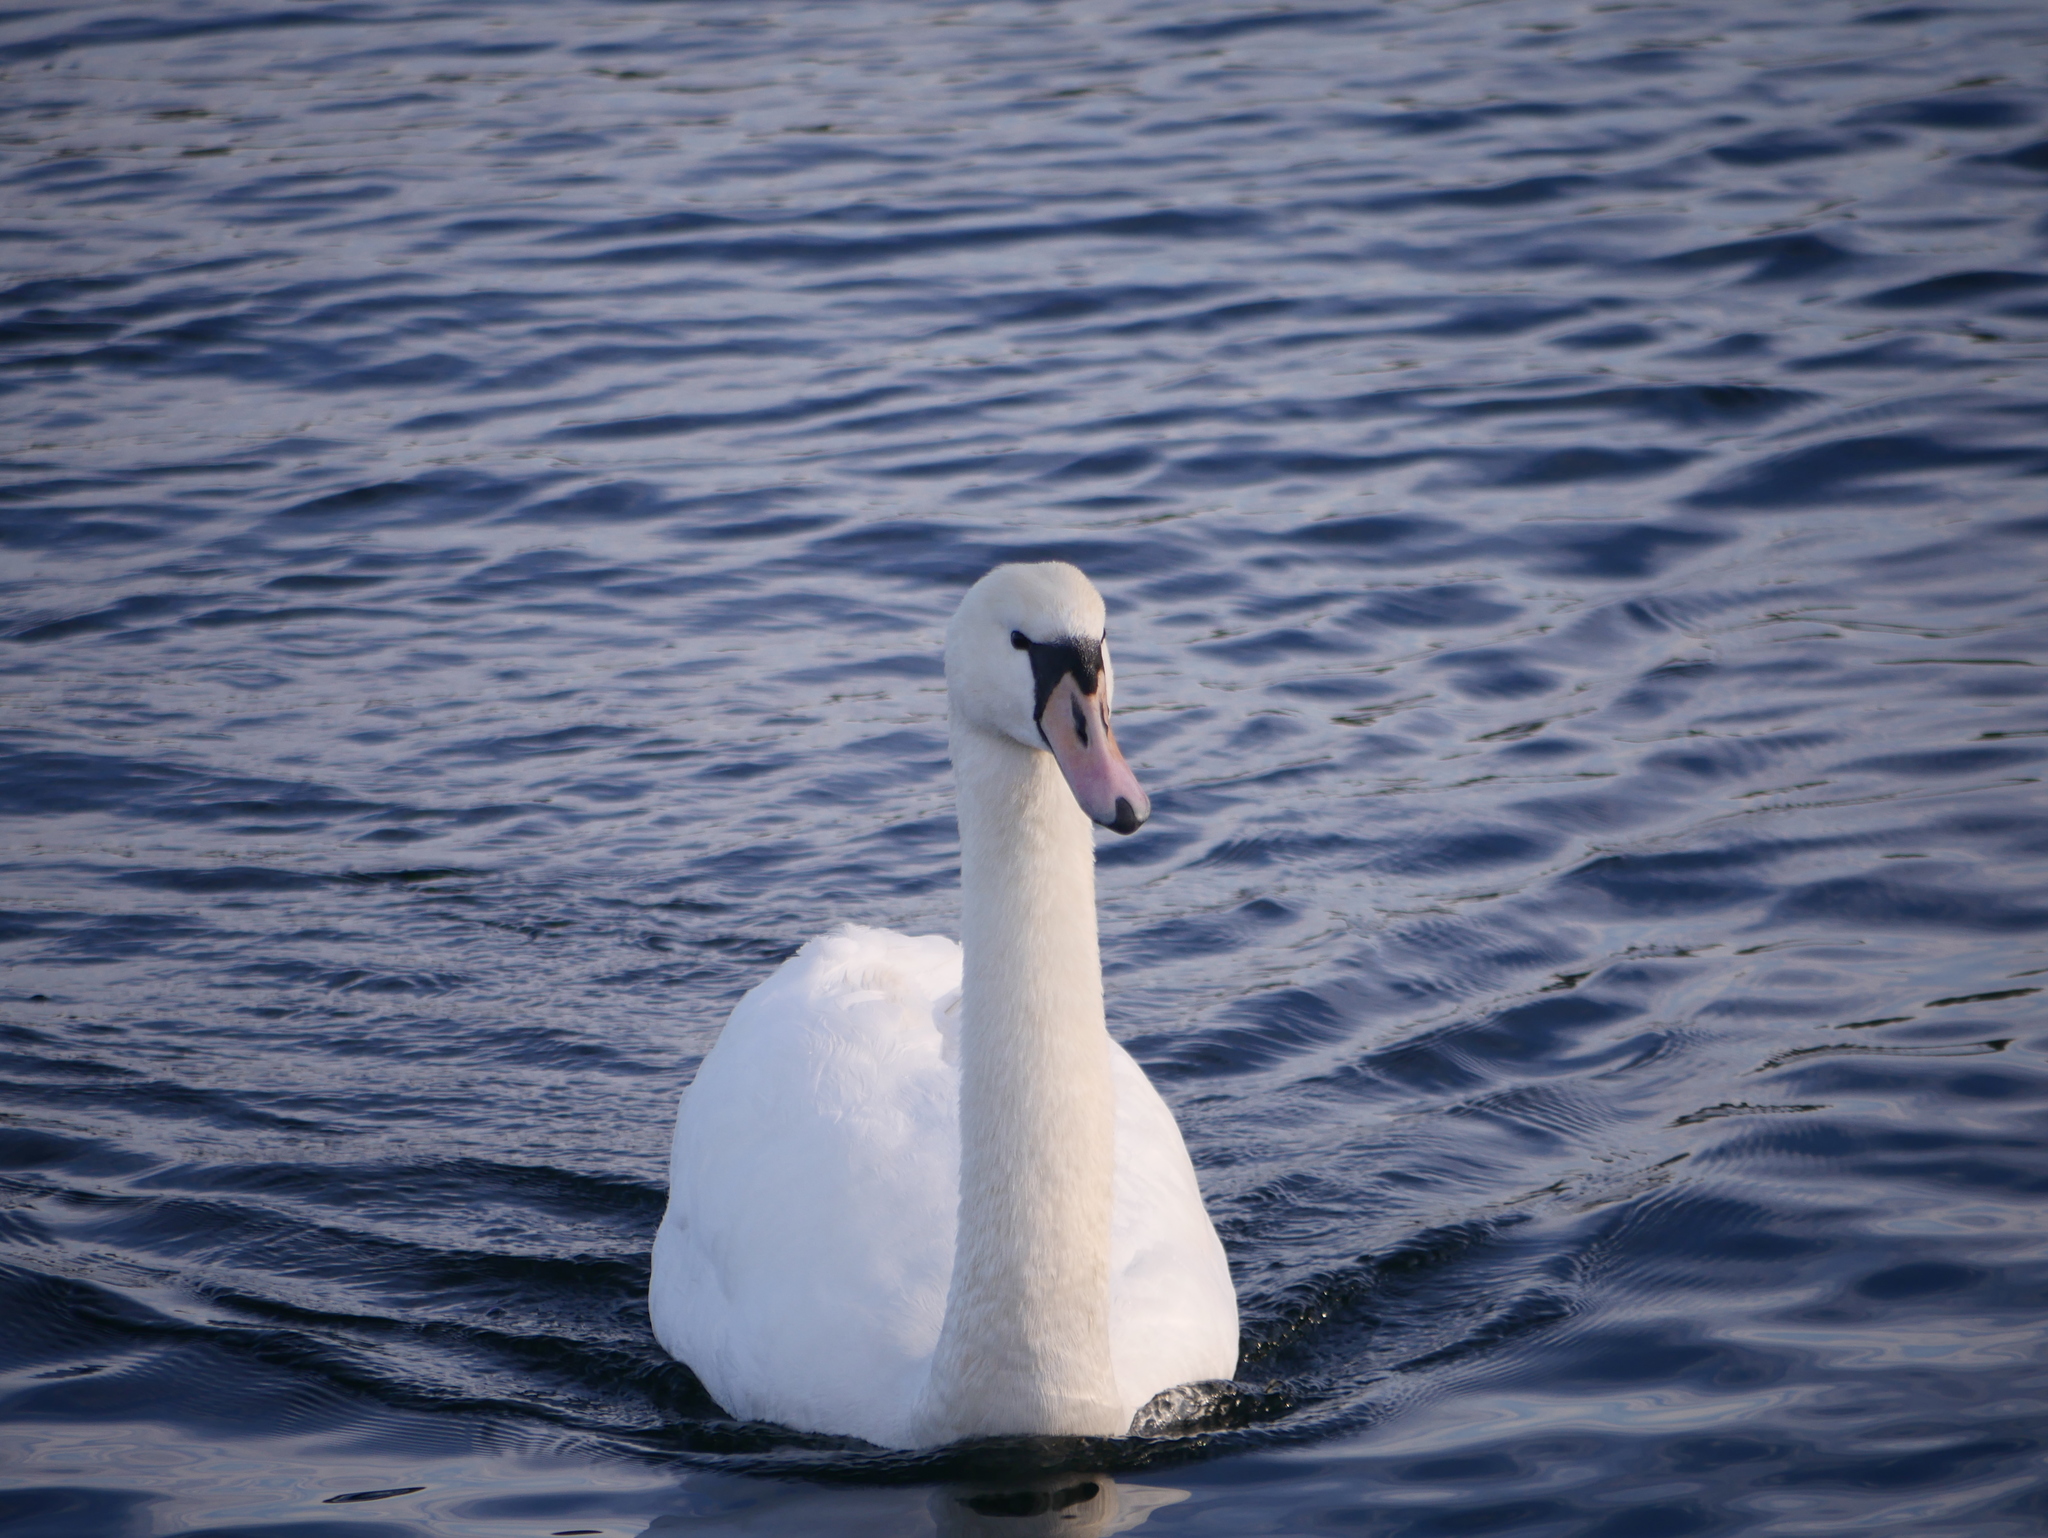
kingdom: Animalia
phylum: Chordata
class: Aves
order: Anseriformes
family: Anatidae
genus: Cygnus
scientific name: Cygnus olor
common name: Mute swan
